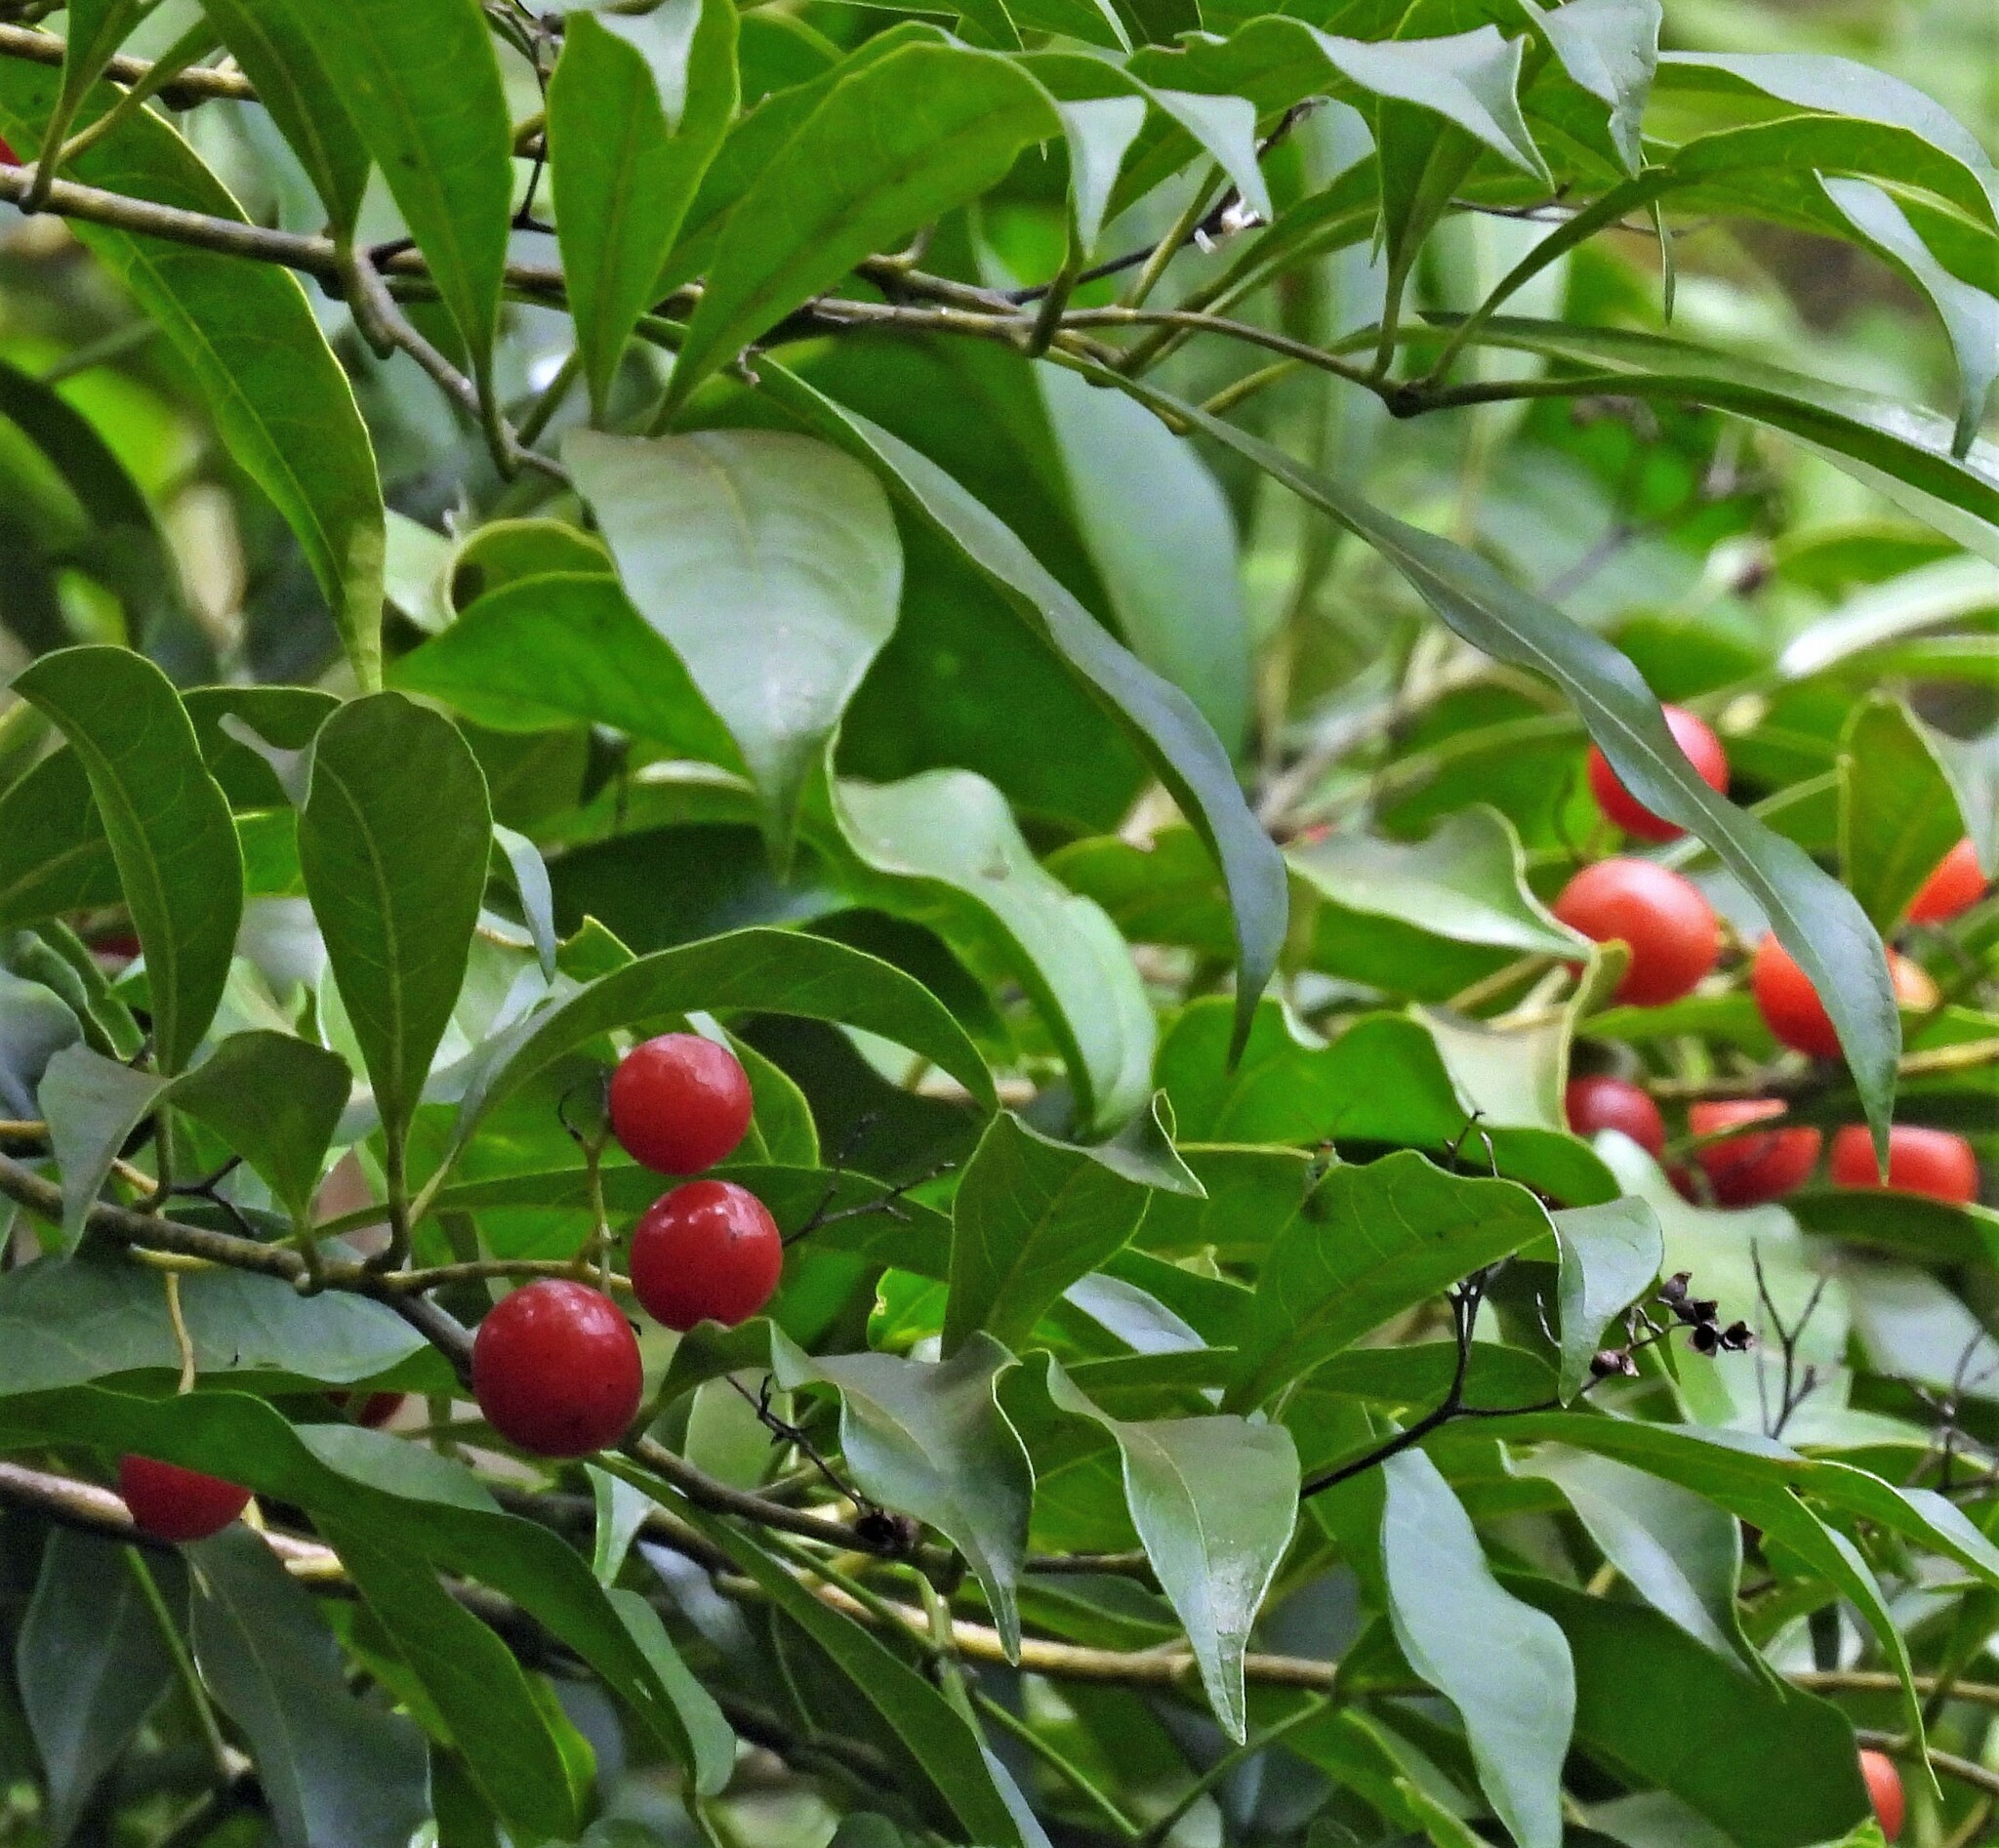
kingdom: Plantae
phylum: Tracheophyta
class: Magnoliopsida
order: Boraginales
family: Cordiaceae
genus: Cordia
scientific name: Cordia ecalyculata
